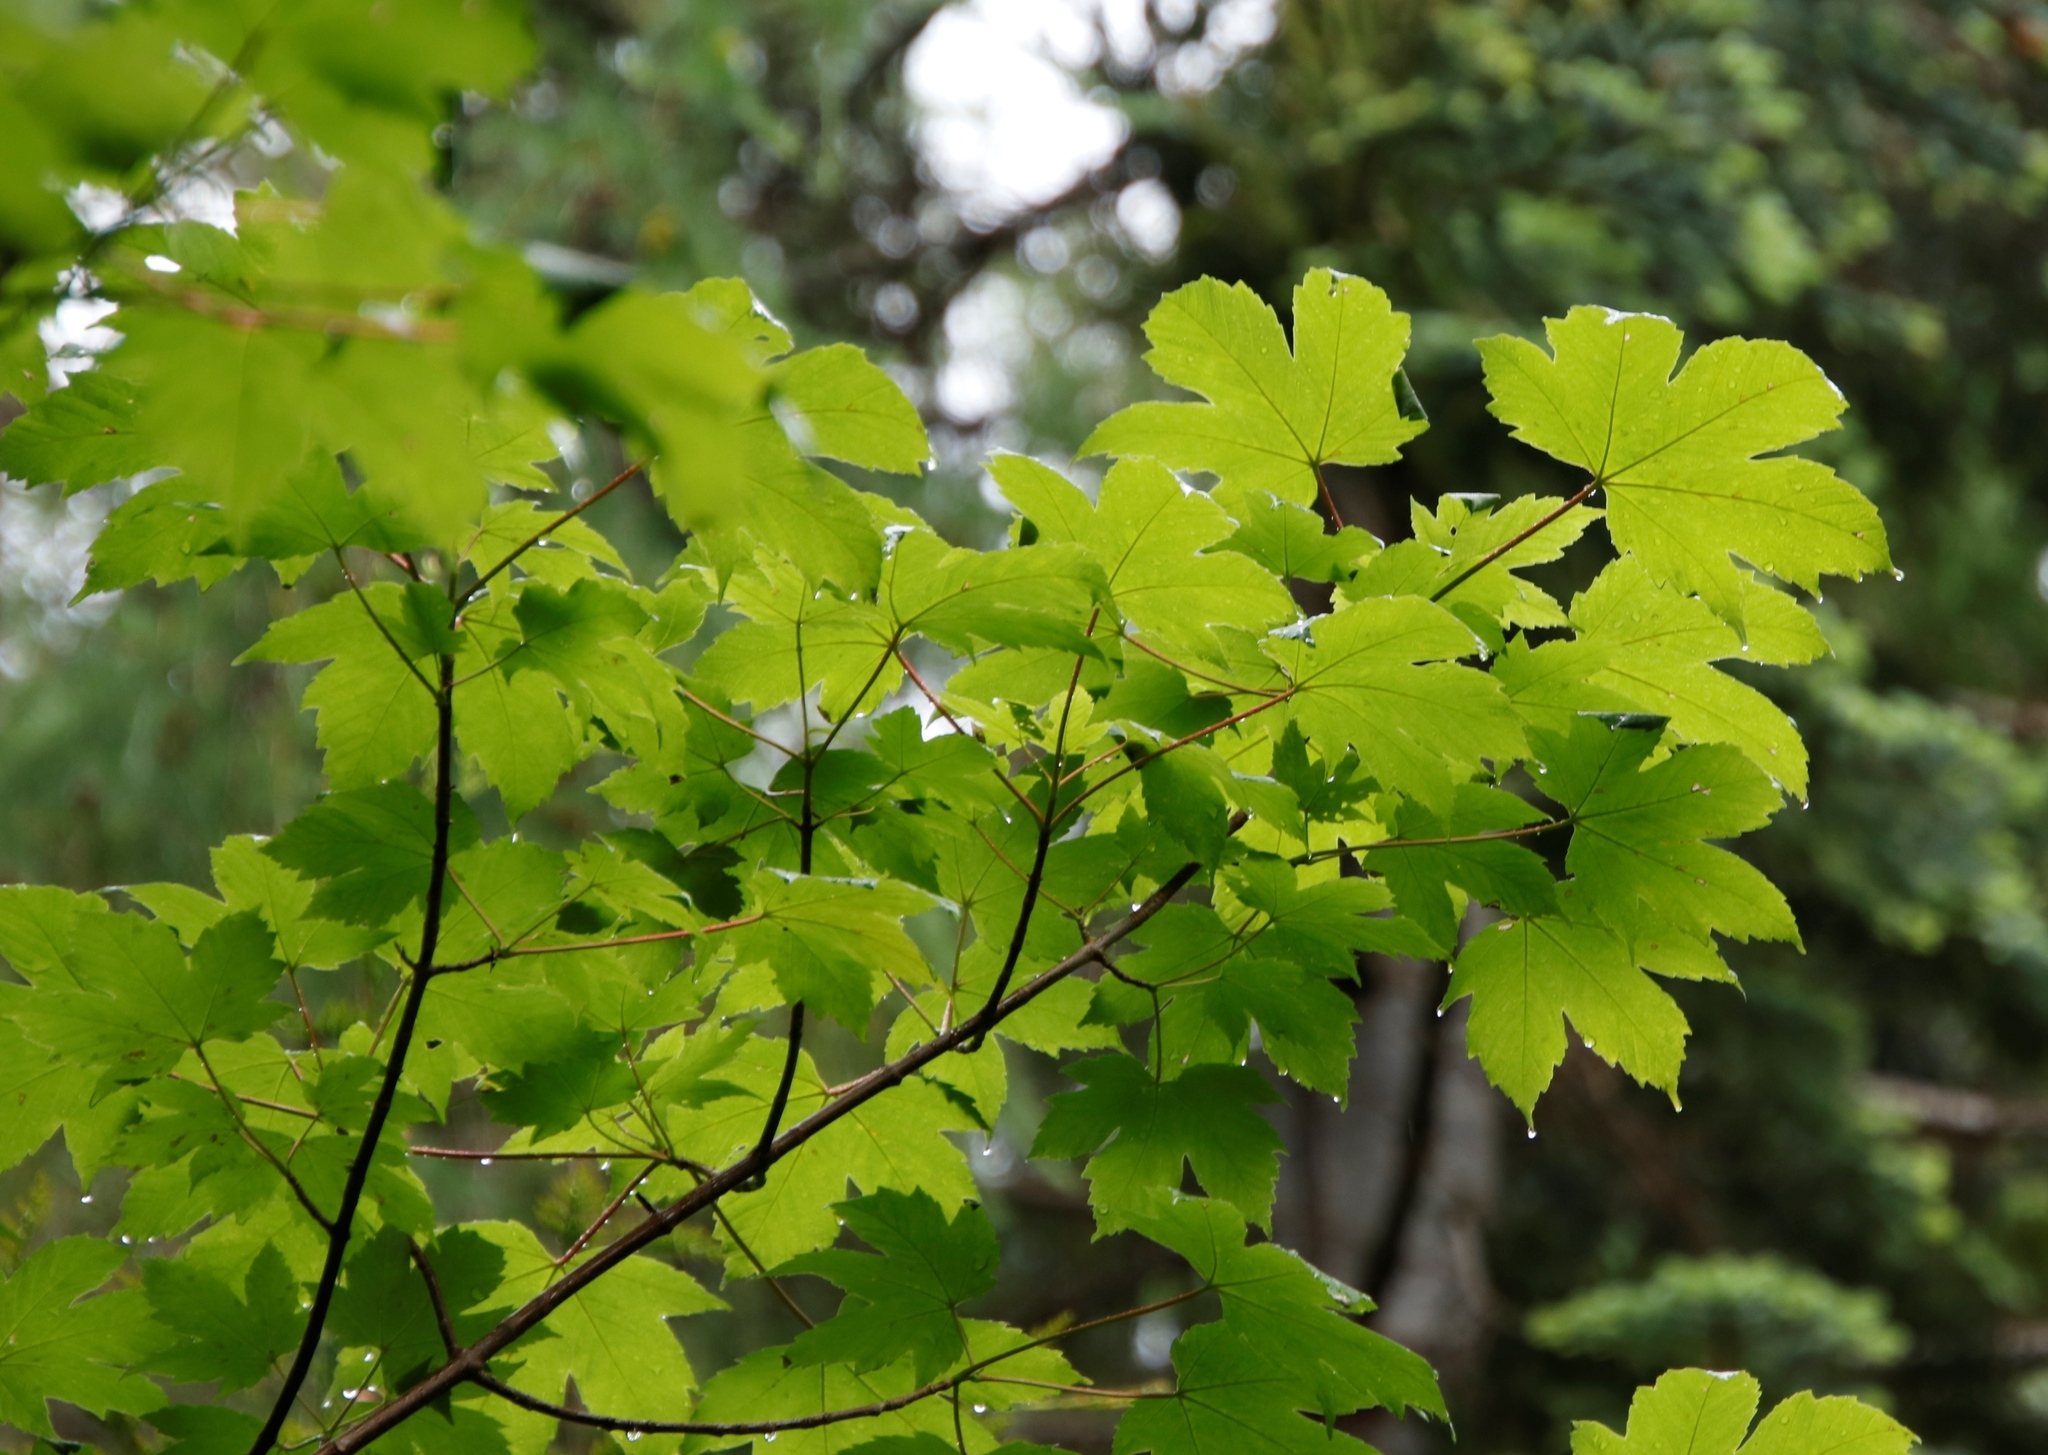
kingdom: Plantae
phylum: Tracheophyta
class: Magnoliopsida
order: Sapindales
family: Sapindaceae
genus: Acer
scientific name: Acer pseudoplatanus
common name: Sycamore
